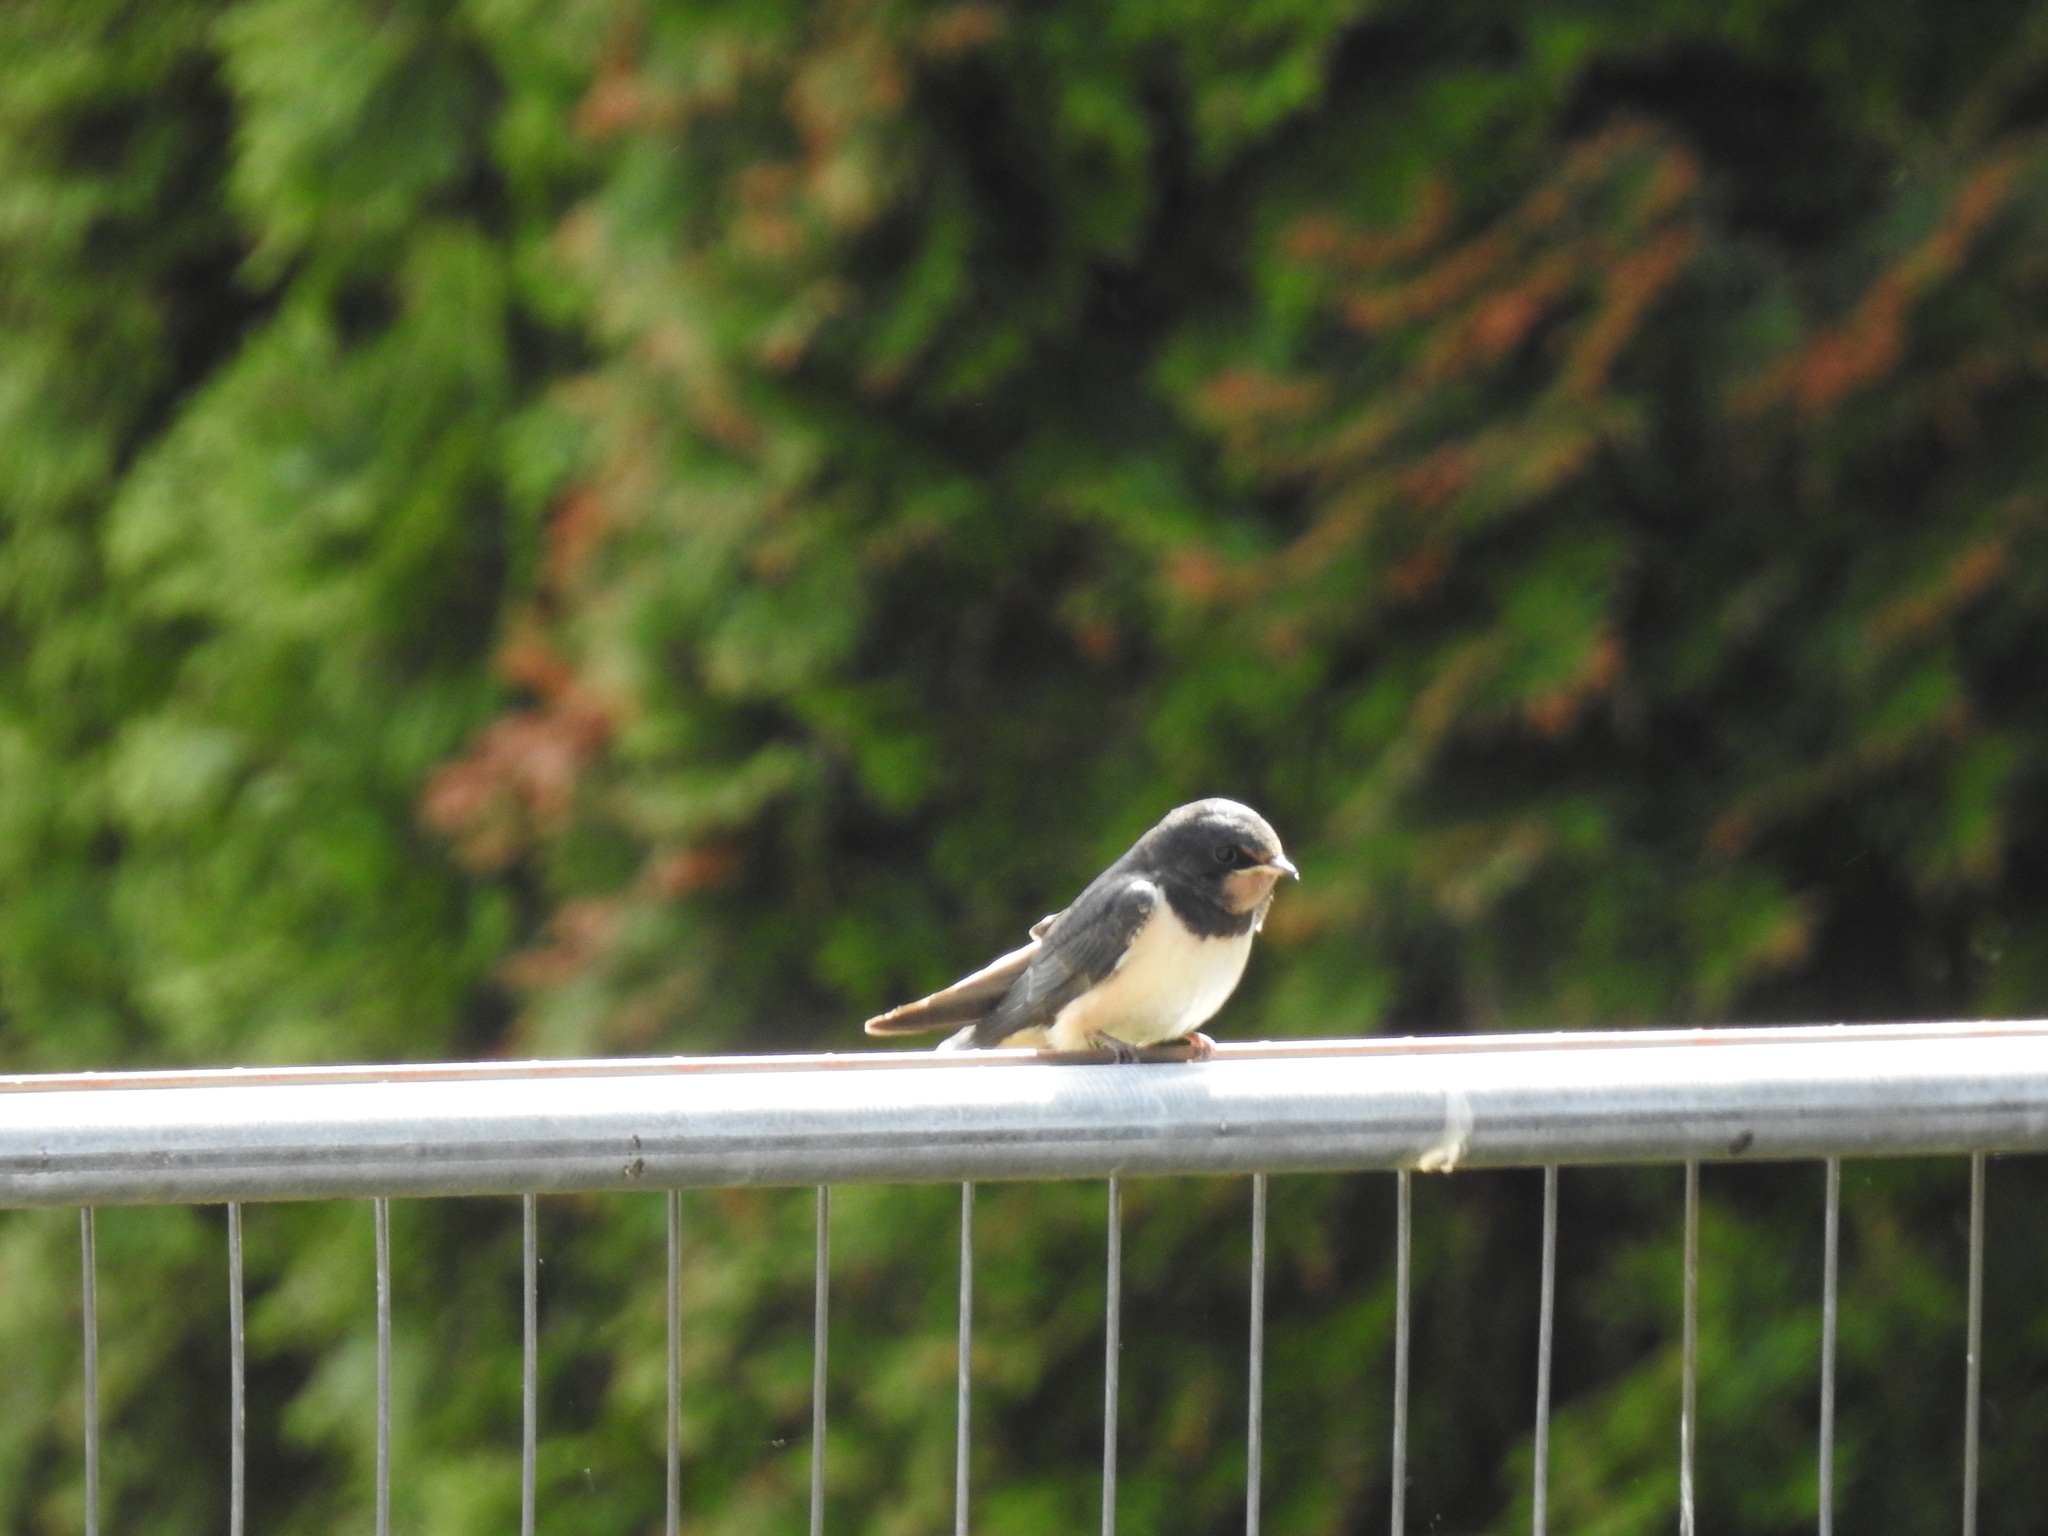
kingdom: Animalia
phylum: Chordata
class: Aves
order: Passeriformes
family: Hirundinidae
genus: Hirundo
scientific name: Hirundo rustica
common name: Barn swallow
